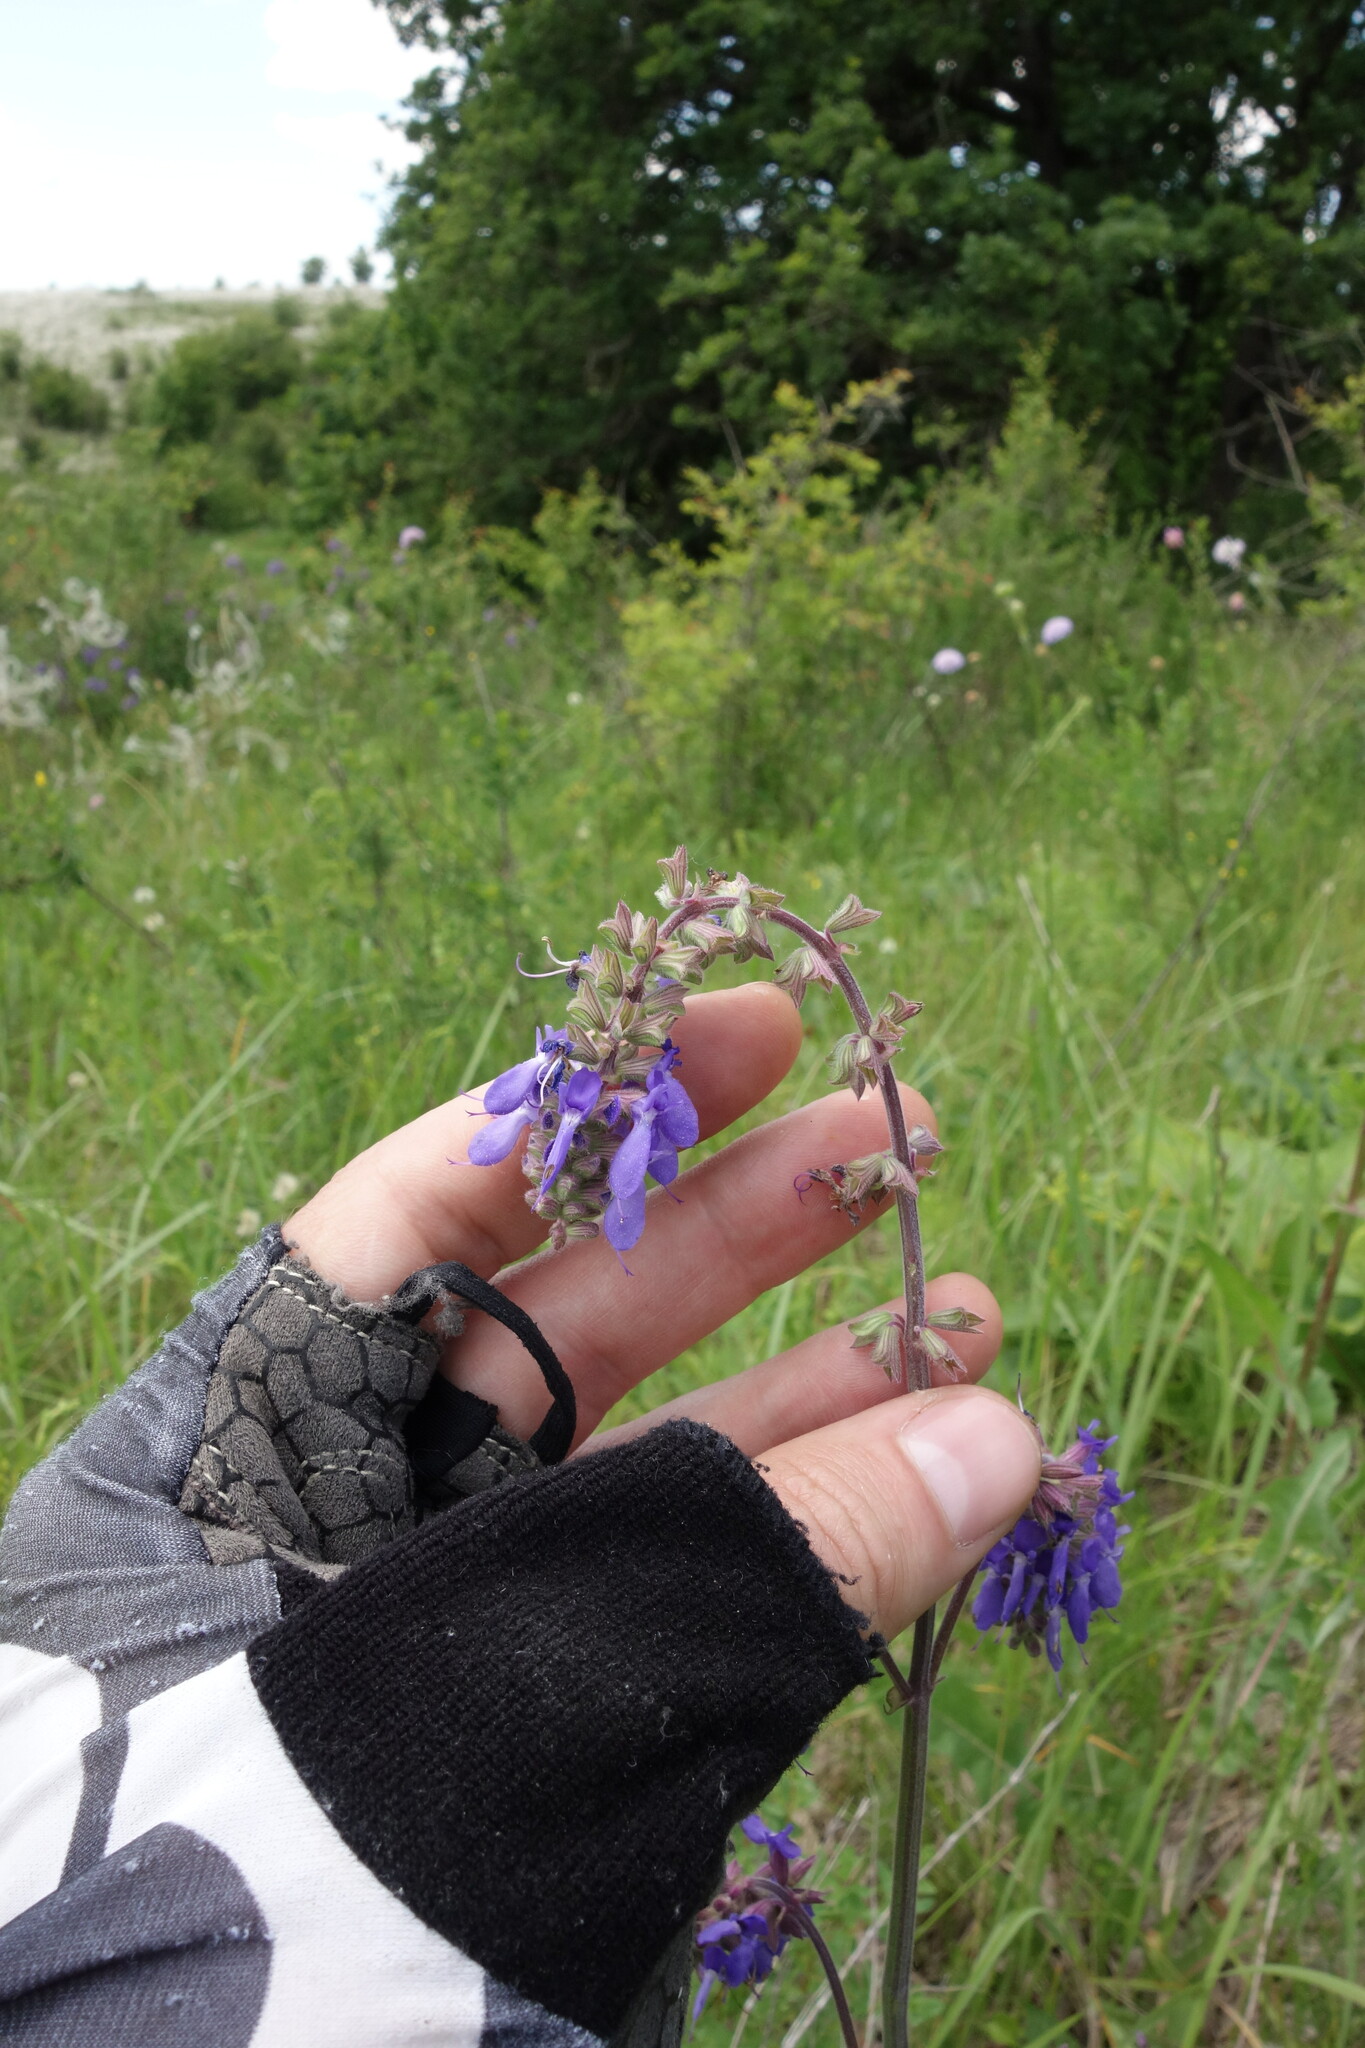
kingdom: Plantae
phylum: Tracheophyta
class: Magnoliopsida
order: Lamiales
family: Lamiaceae
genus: Salvia
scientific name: Salvia nutans
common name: Nodding sage
